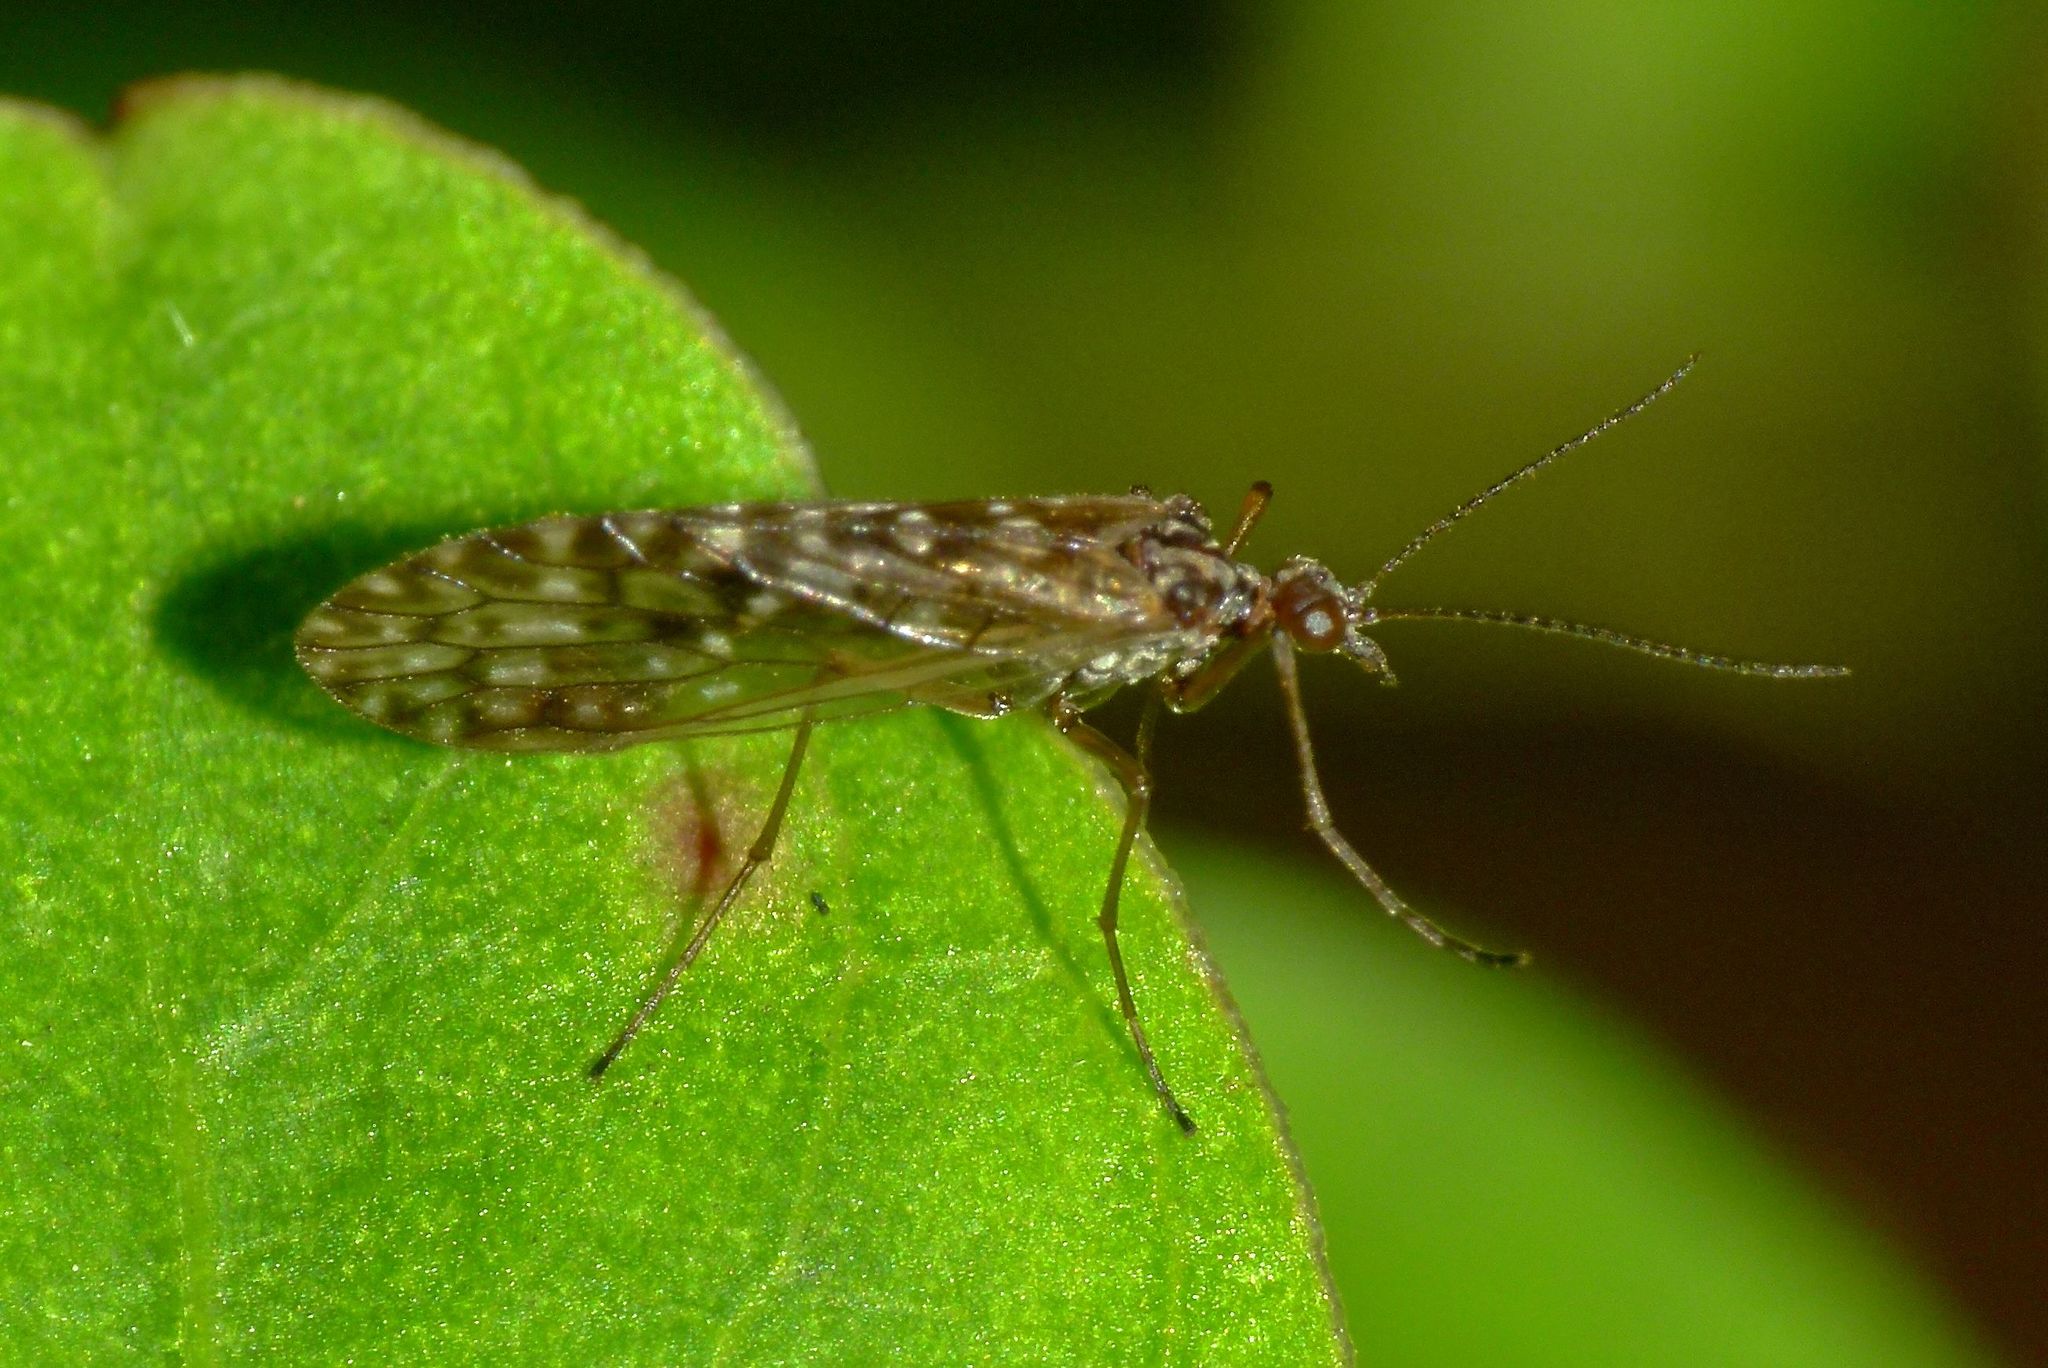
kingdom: Animalia
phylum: Arthropoda
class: Insecta
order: Mecoptera
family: Nannochoristidae
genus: Nannochorista
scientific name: Nannochorista philpotti
